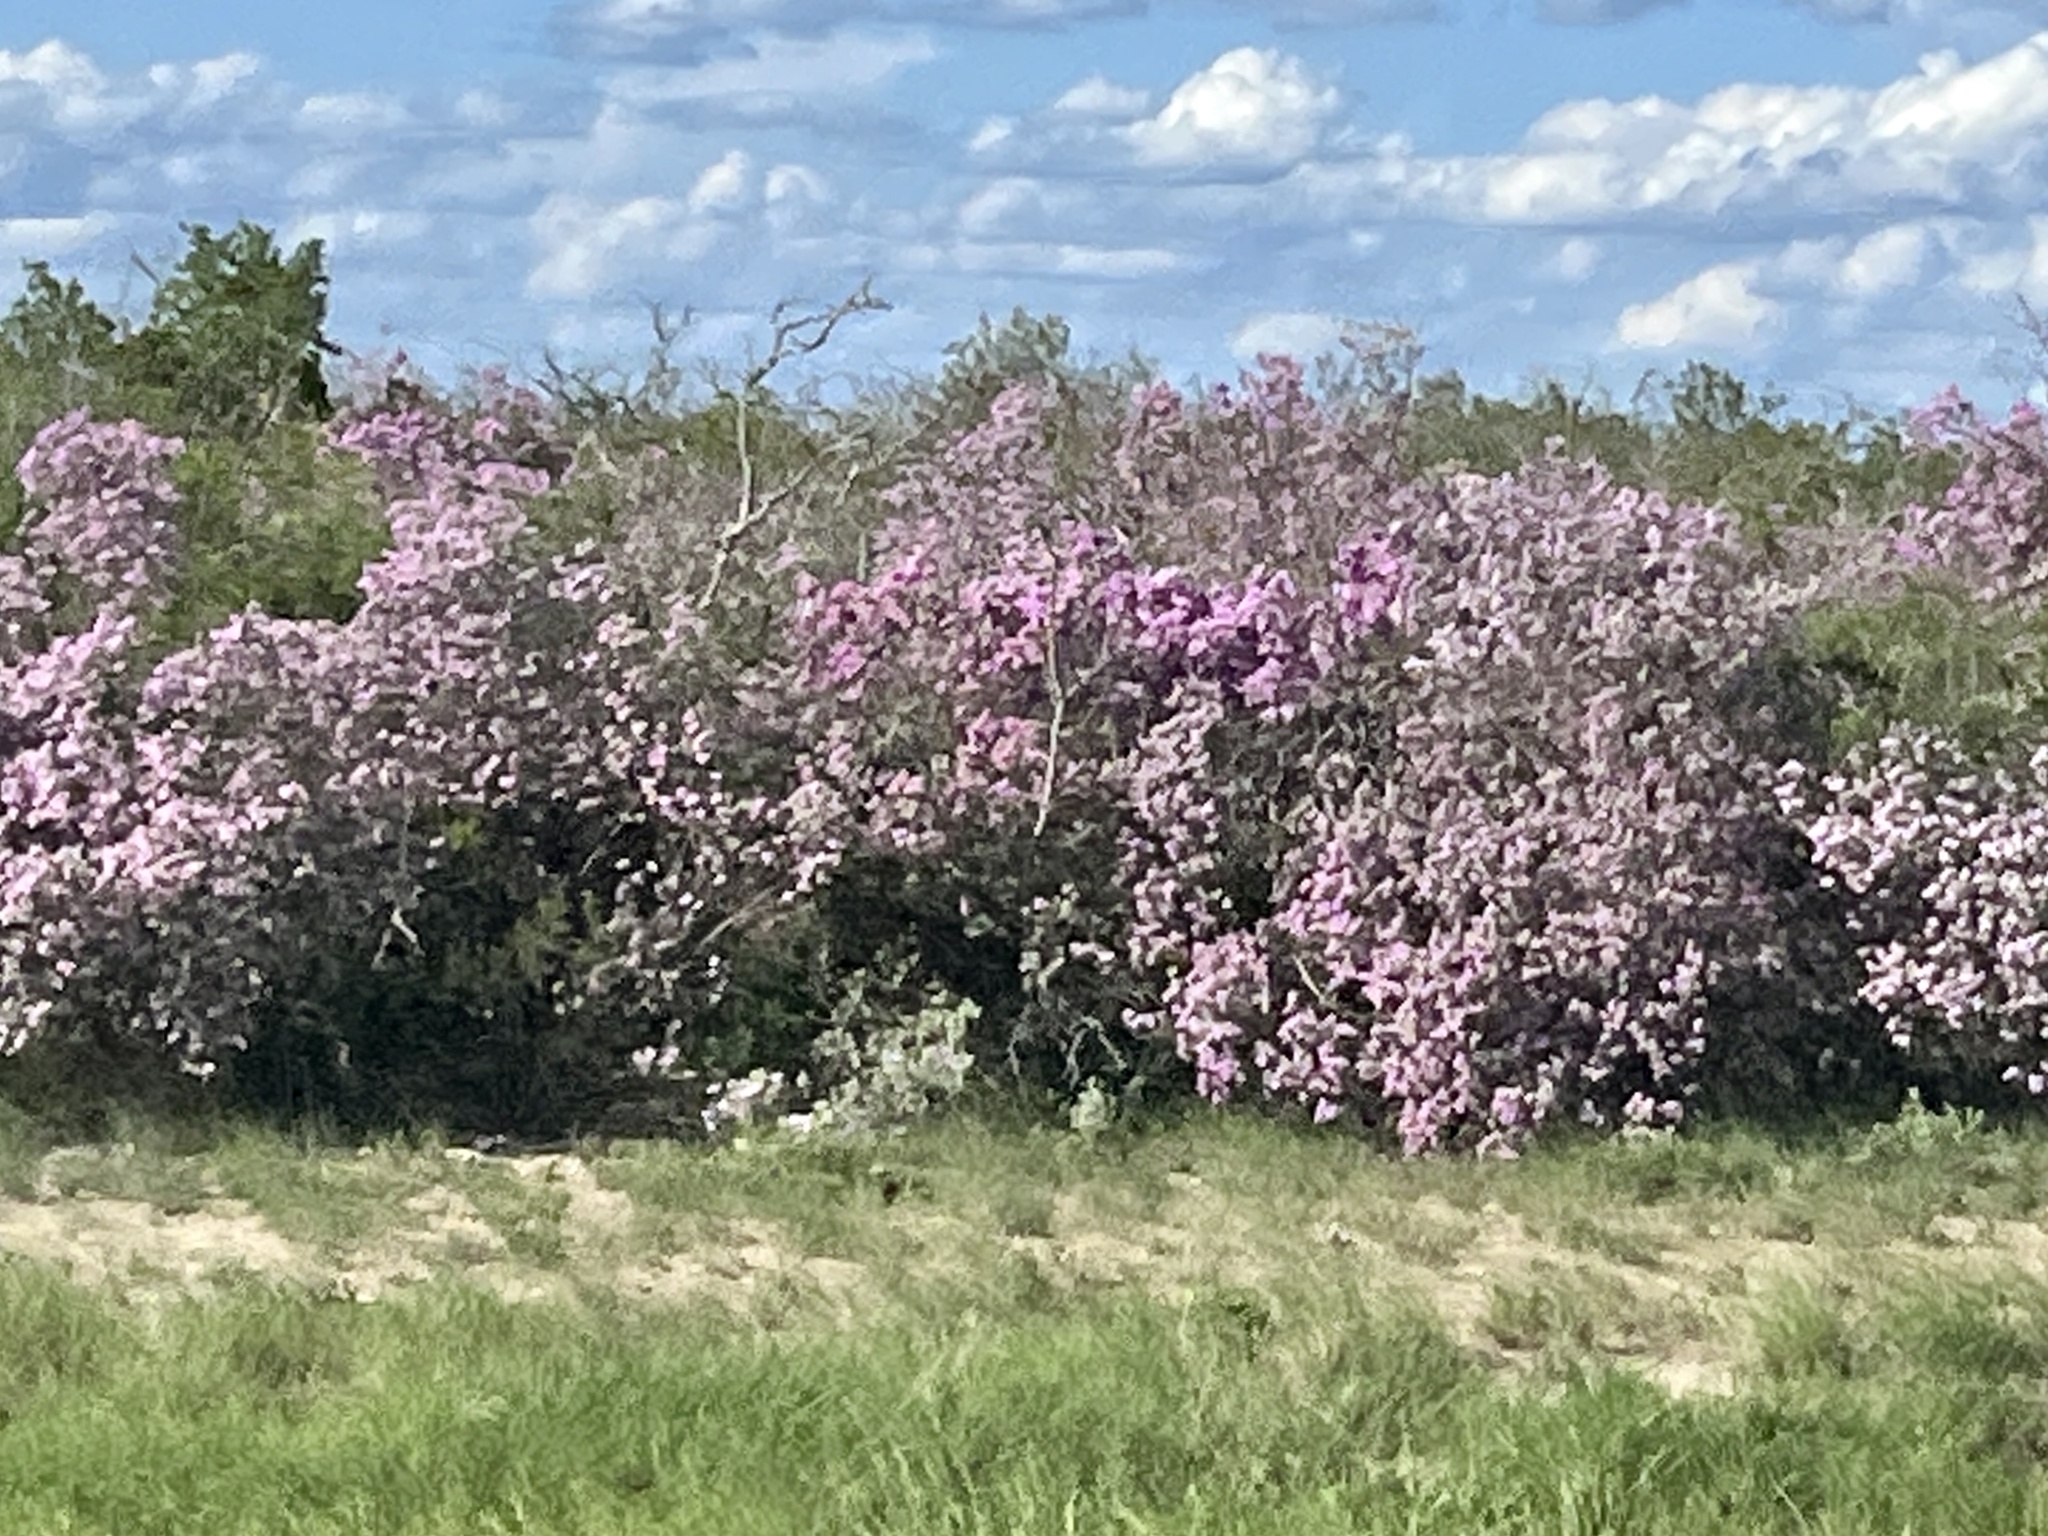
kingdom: Plantae
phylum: Tracheophyta
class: Magnoliopsida
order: Lamiales
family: Scrophulariaceae
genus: Leucophyllum
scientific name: Leucophyllum frutescens
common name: Texas silverleaf
